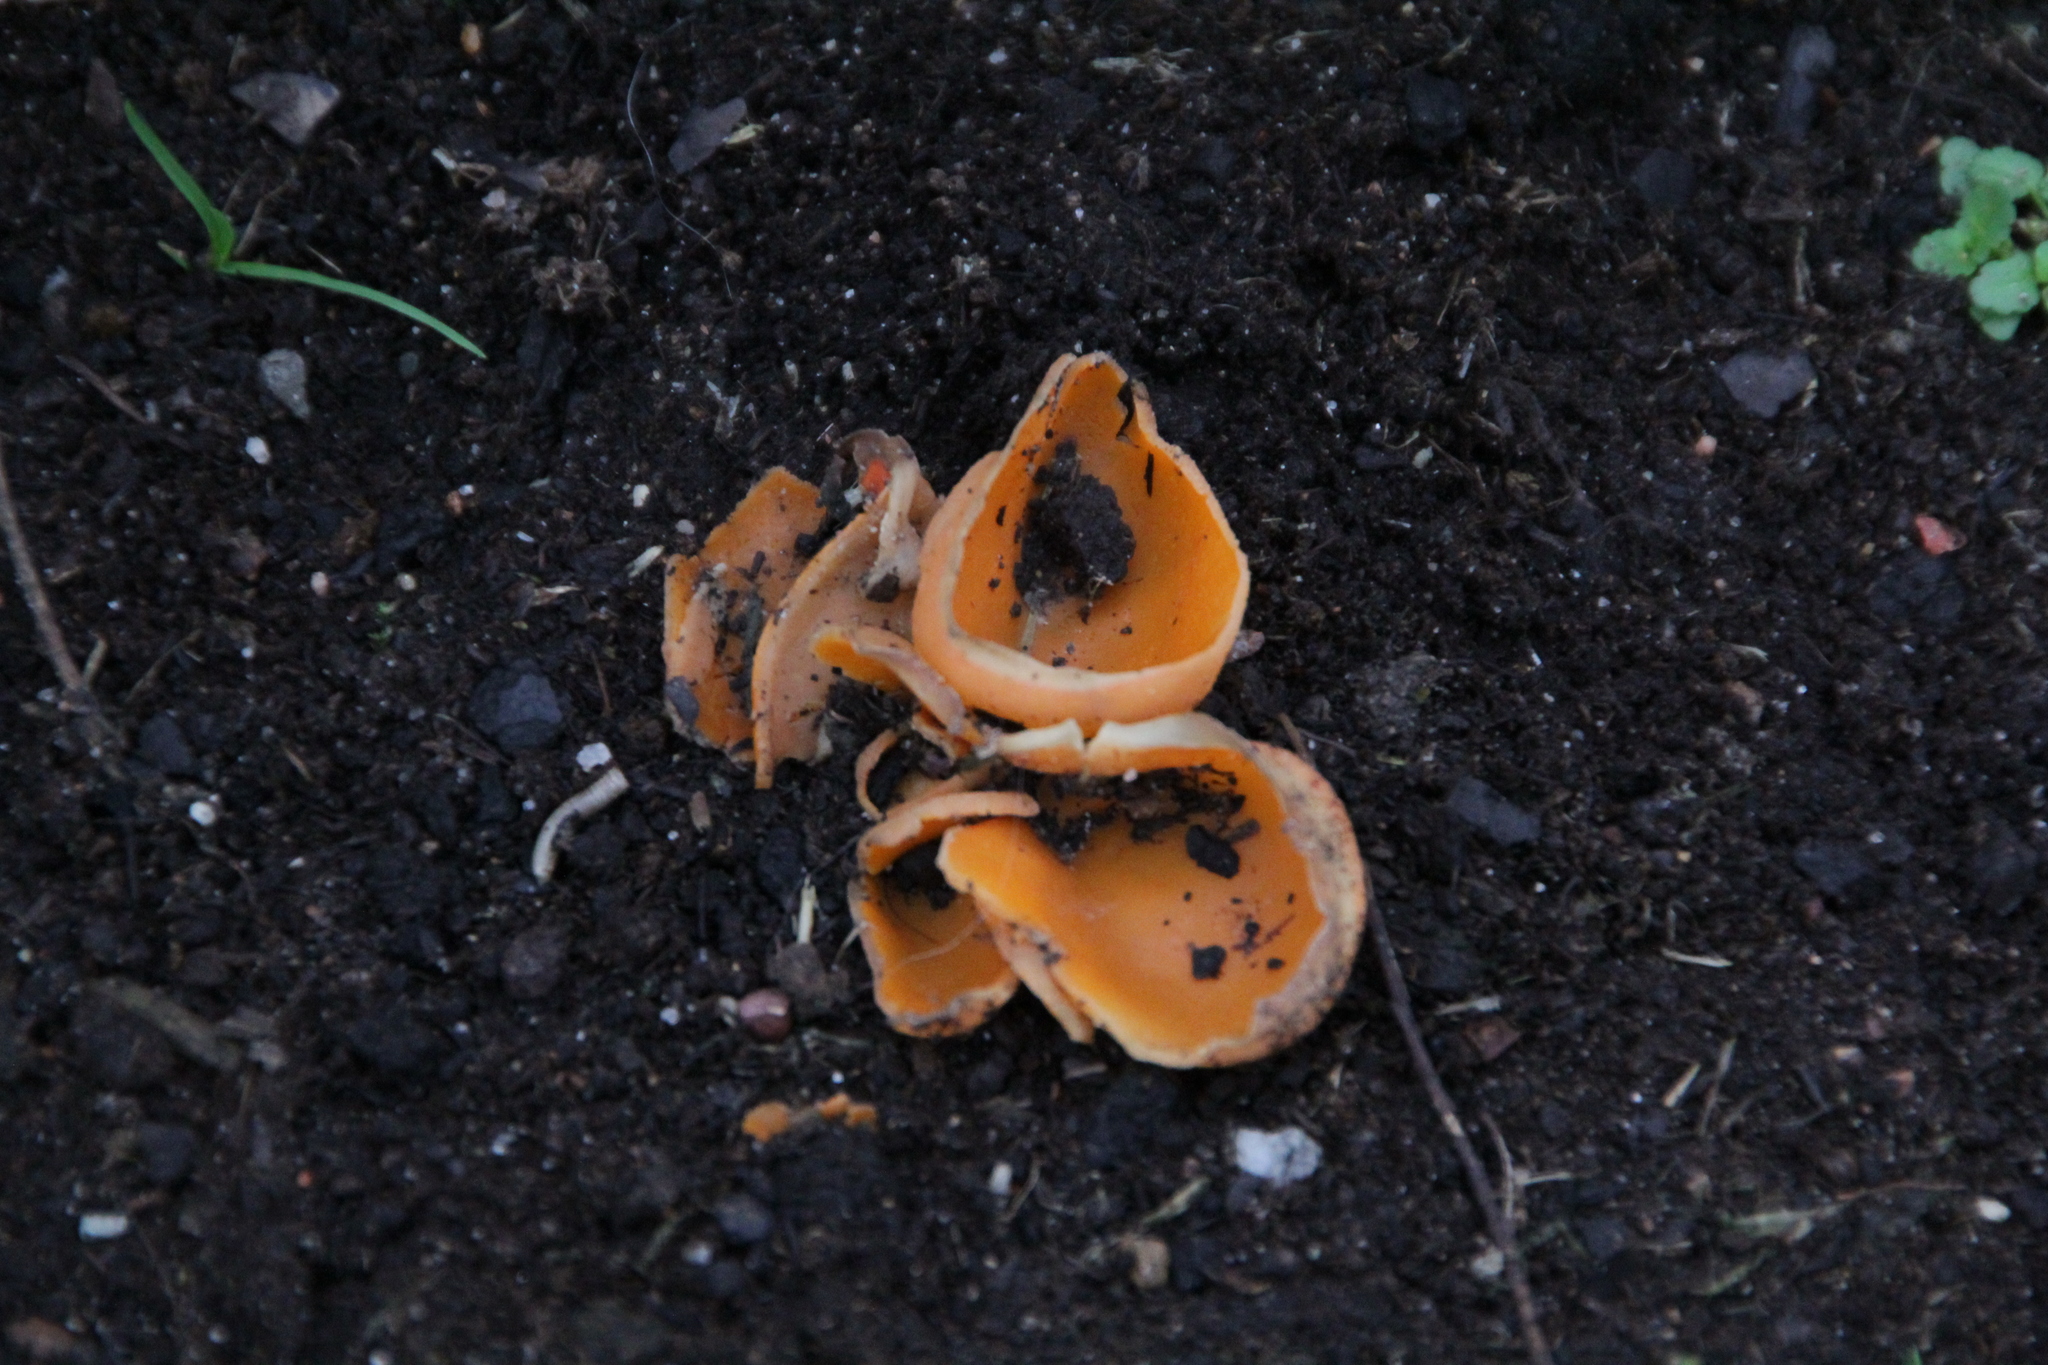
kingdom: Fungi
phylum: Ascomycota
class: Pezizomycetes
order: Pezizales
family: Pyronemataceae
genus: Aleuria
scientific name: Aleuria aurantia
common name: Orange peel fungus
